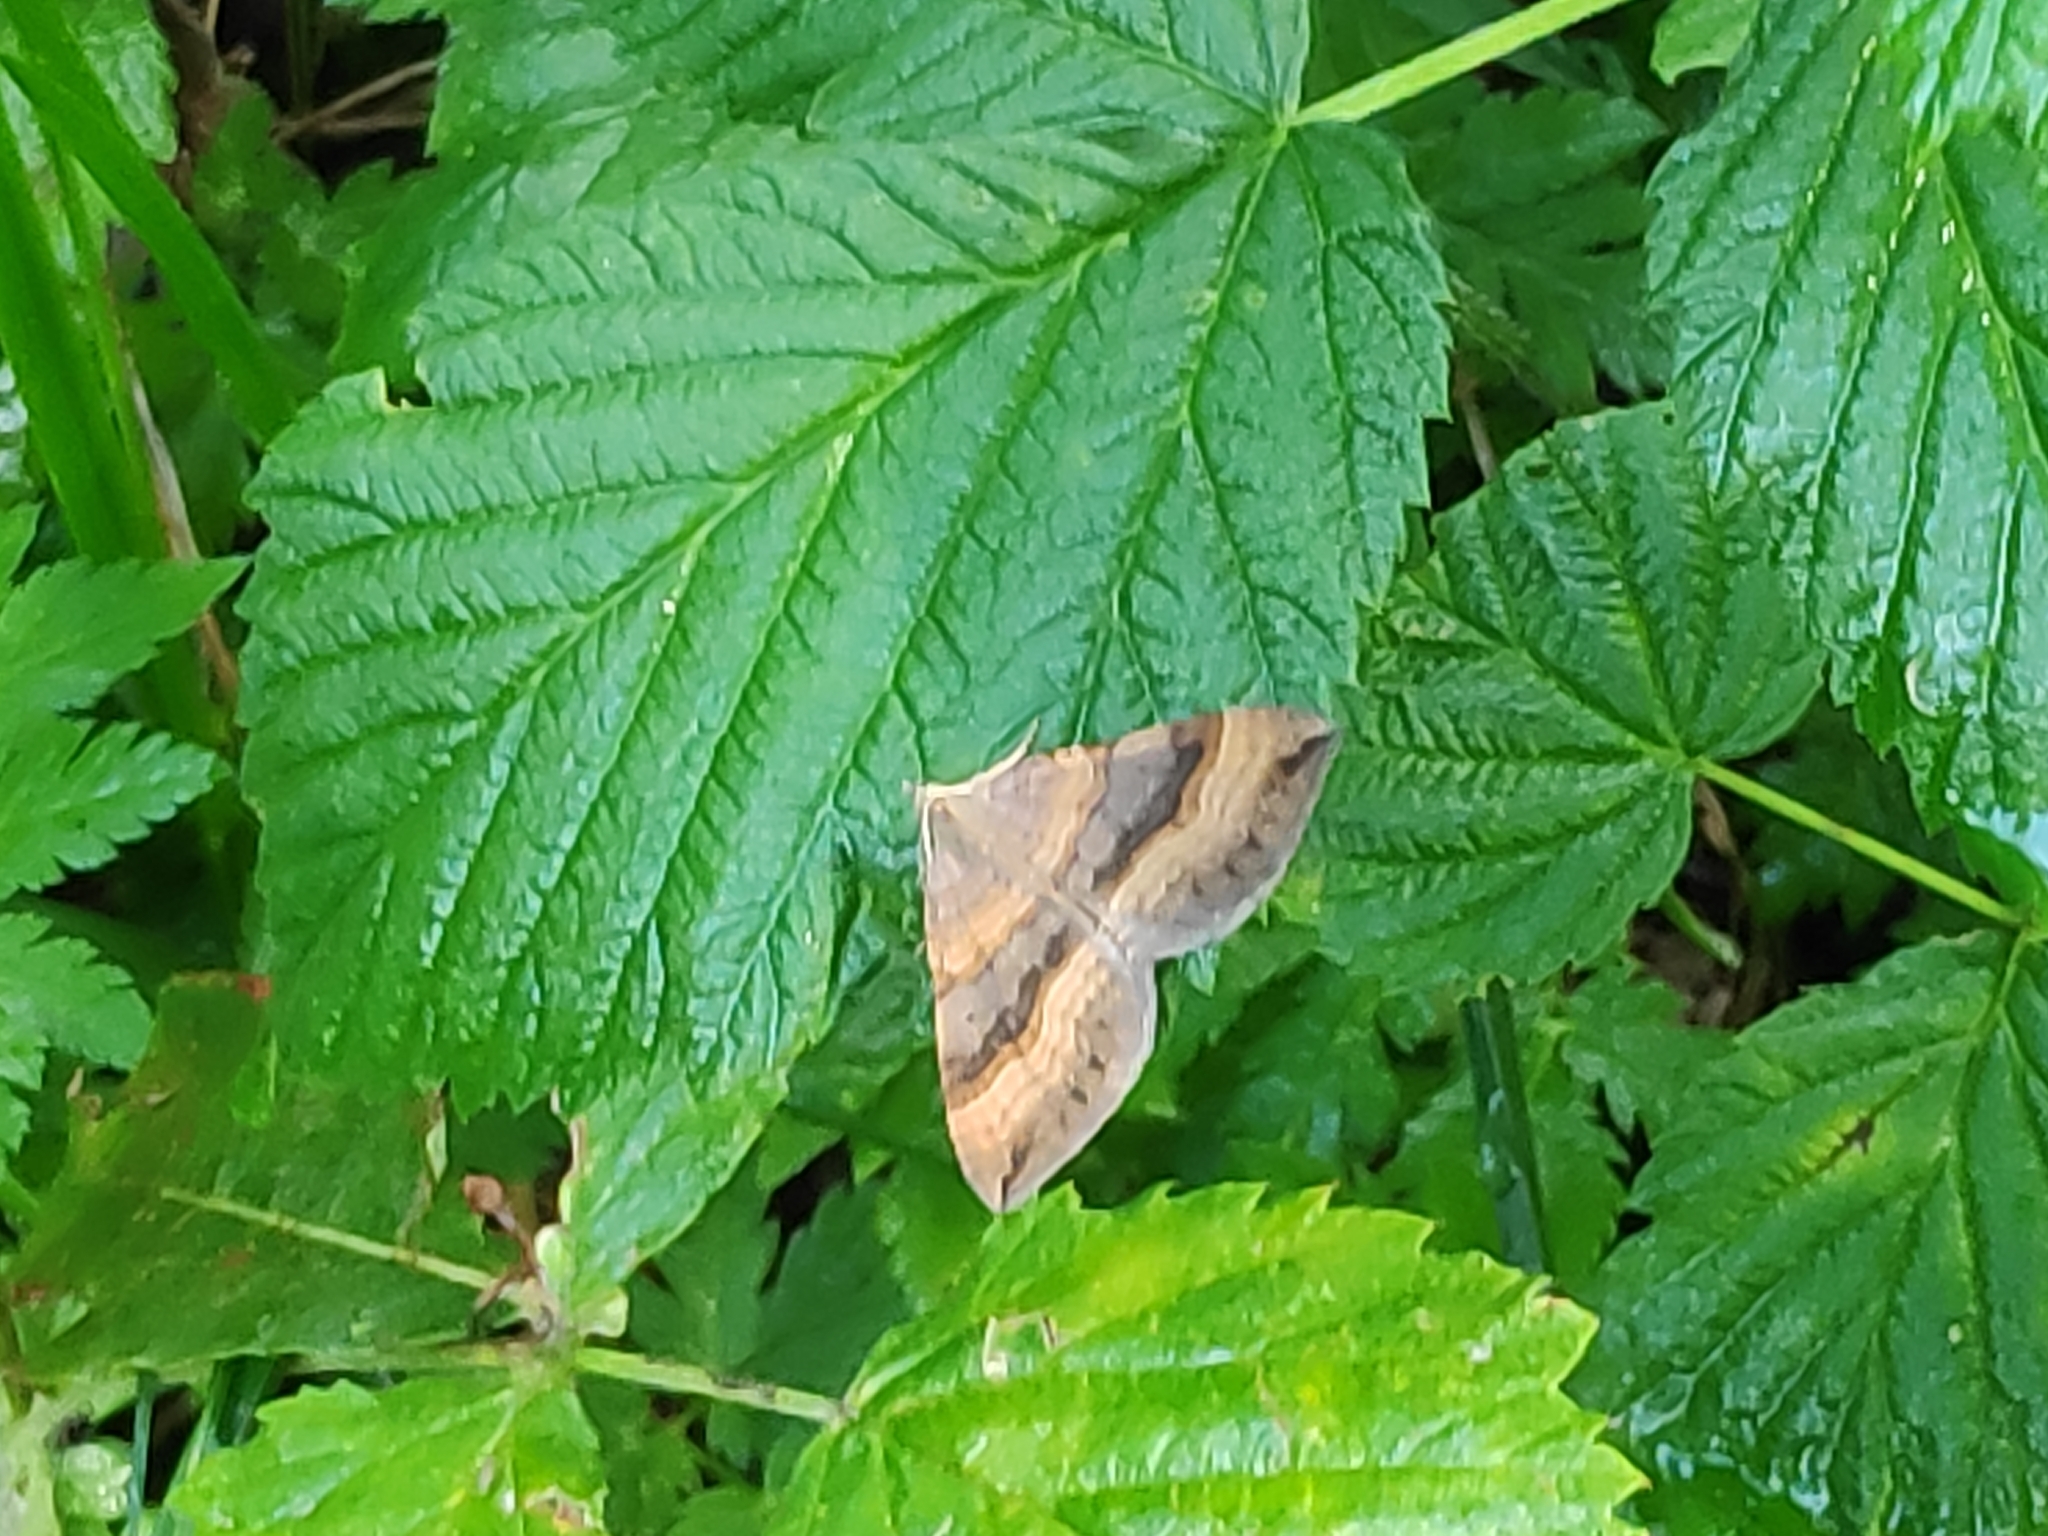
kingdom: Animalia
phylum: Arthropoda
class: Insecta
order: Lepidoptera
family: Geometridae
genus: Scotopteryx
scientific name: Scotopteryx chenopodiata
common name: Shaded broad-bar
